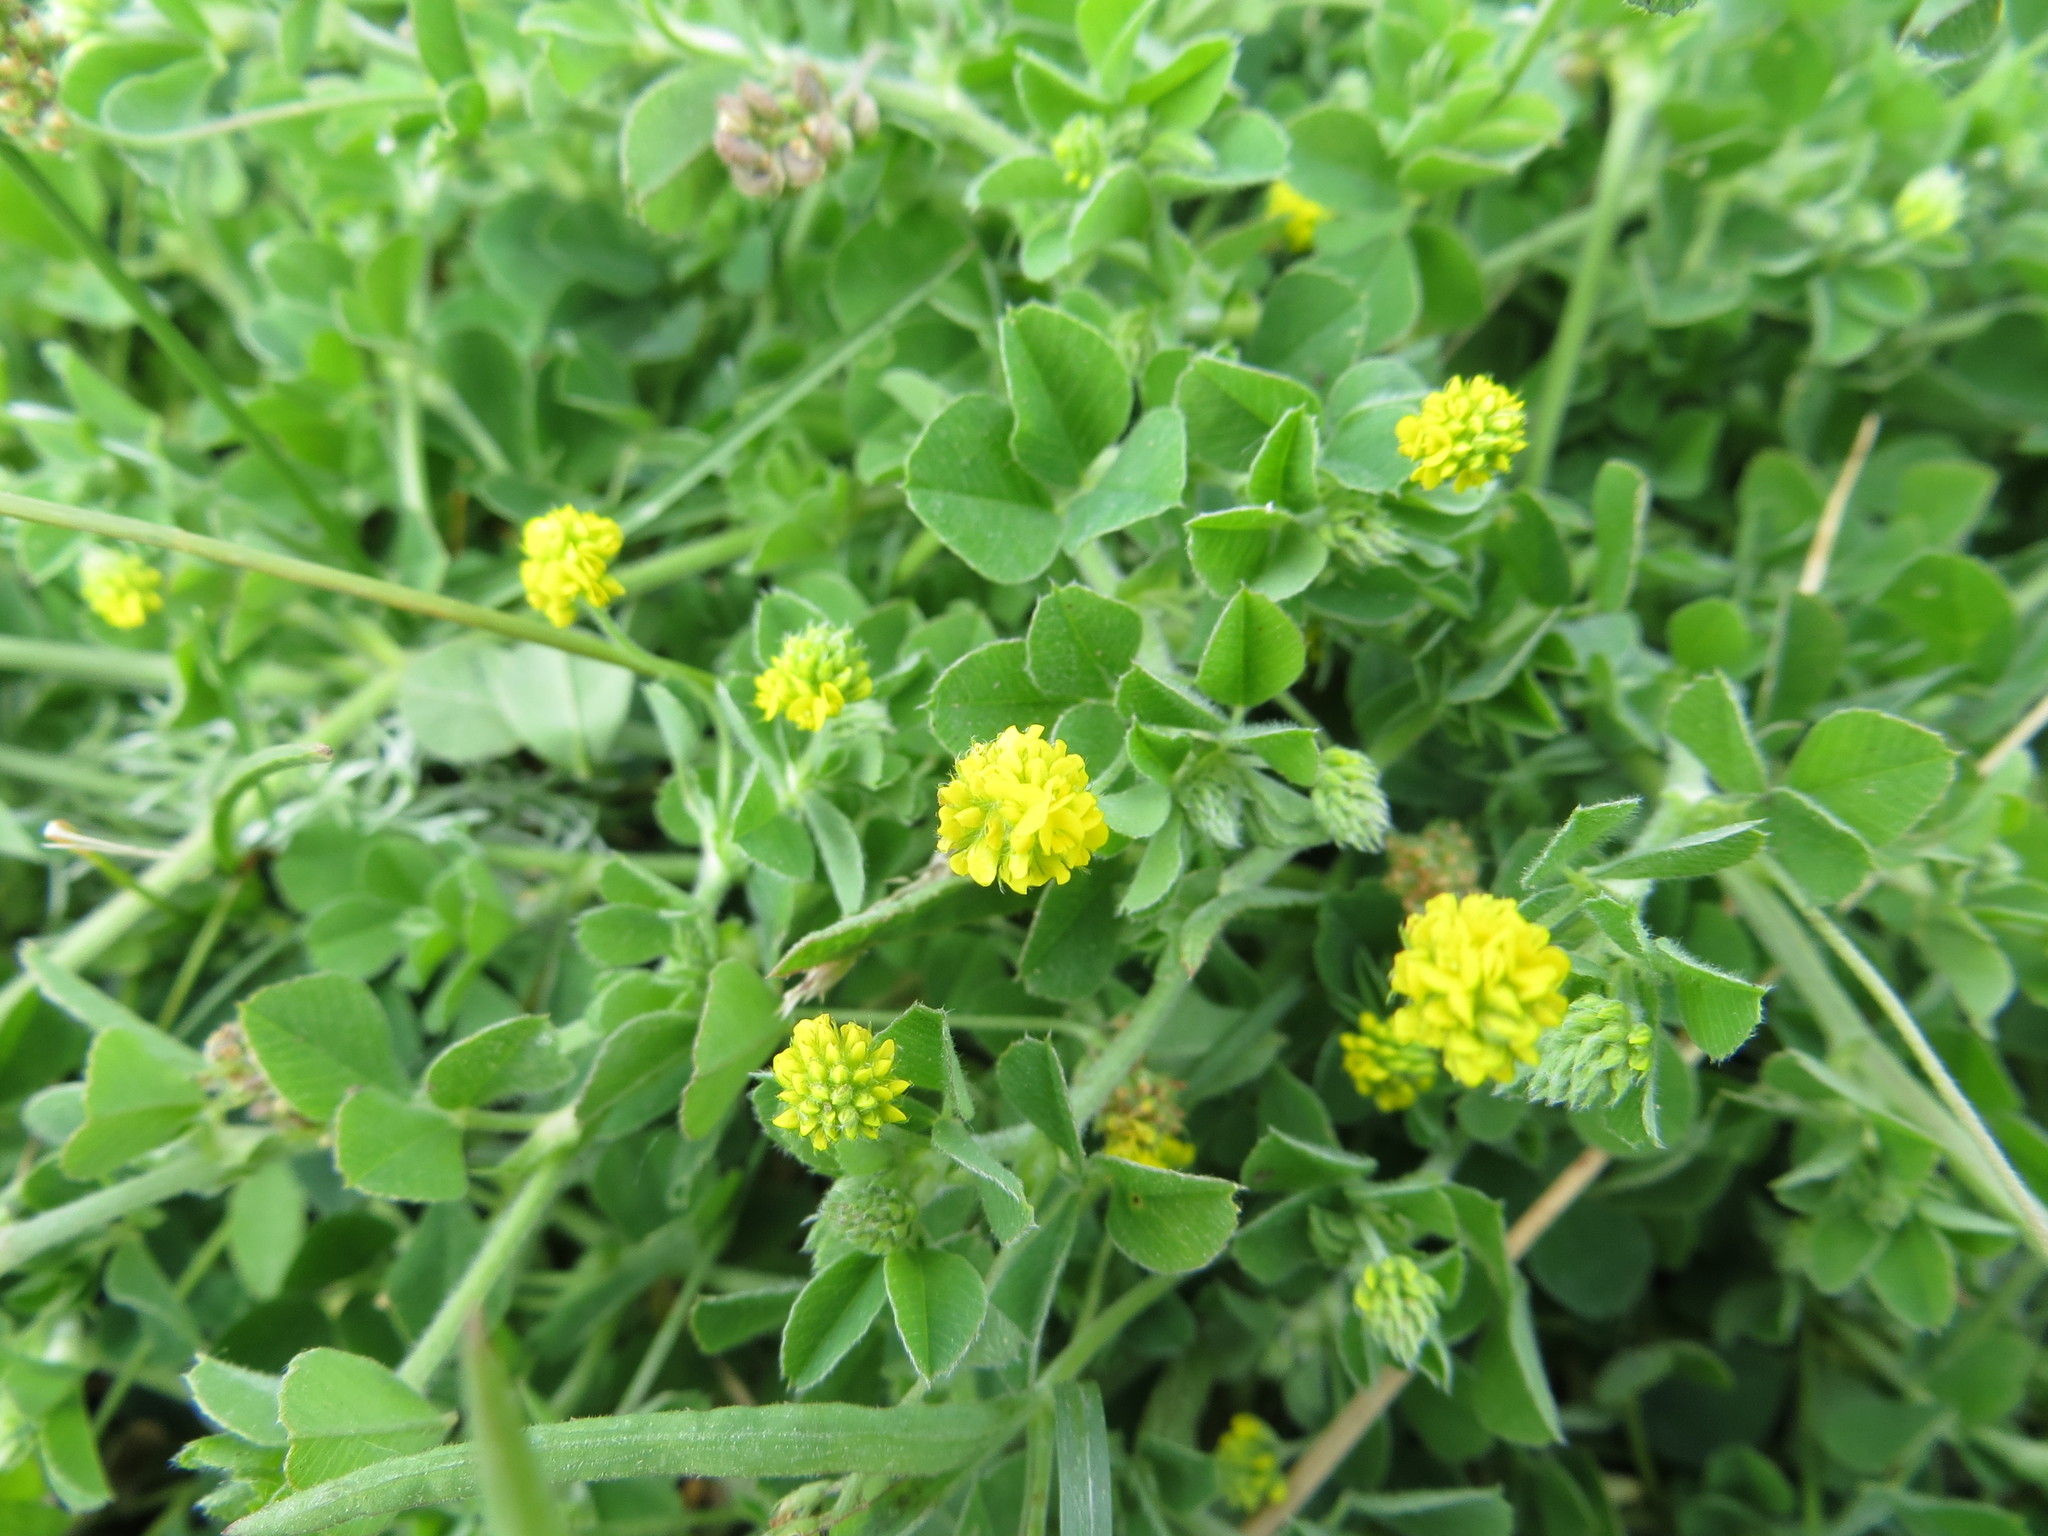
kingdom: Plantae
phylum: Tracheophyta
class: Magnoliopsida
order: Fabales
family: Fabaceae
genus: Medicago
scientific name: Medicago lupulina
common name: Black medick
